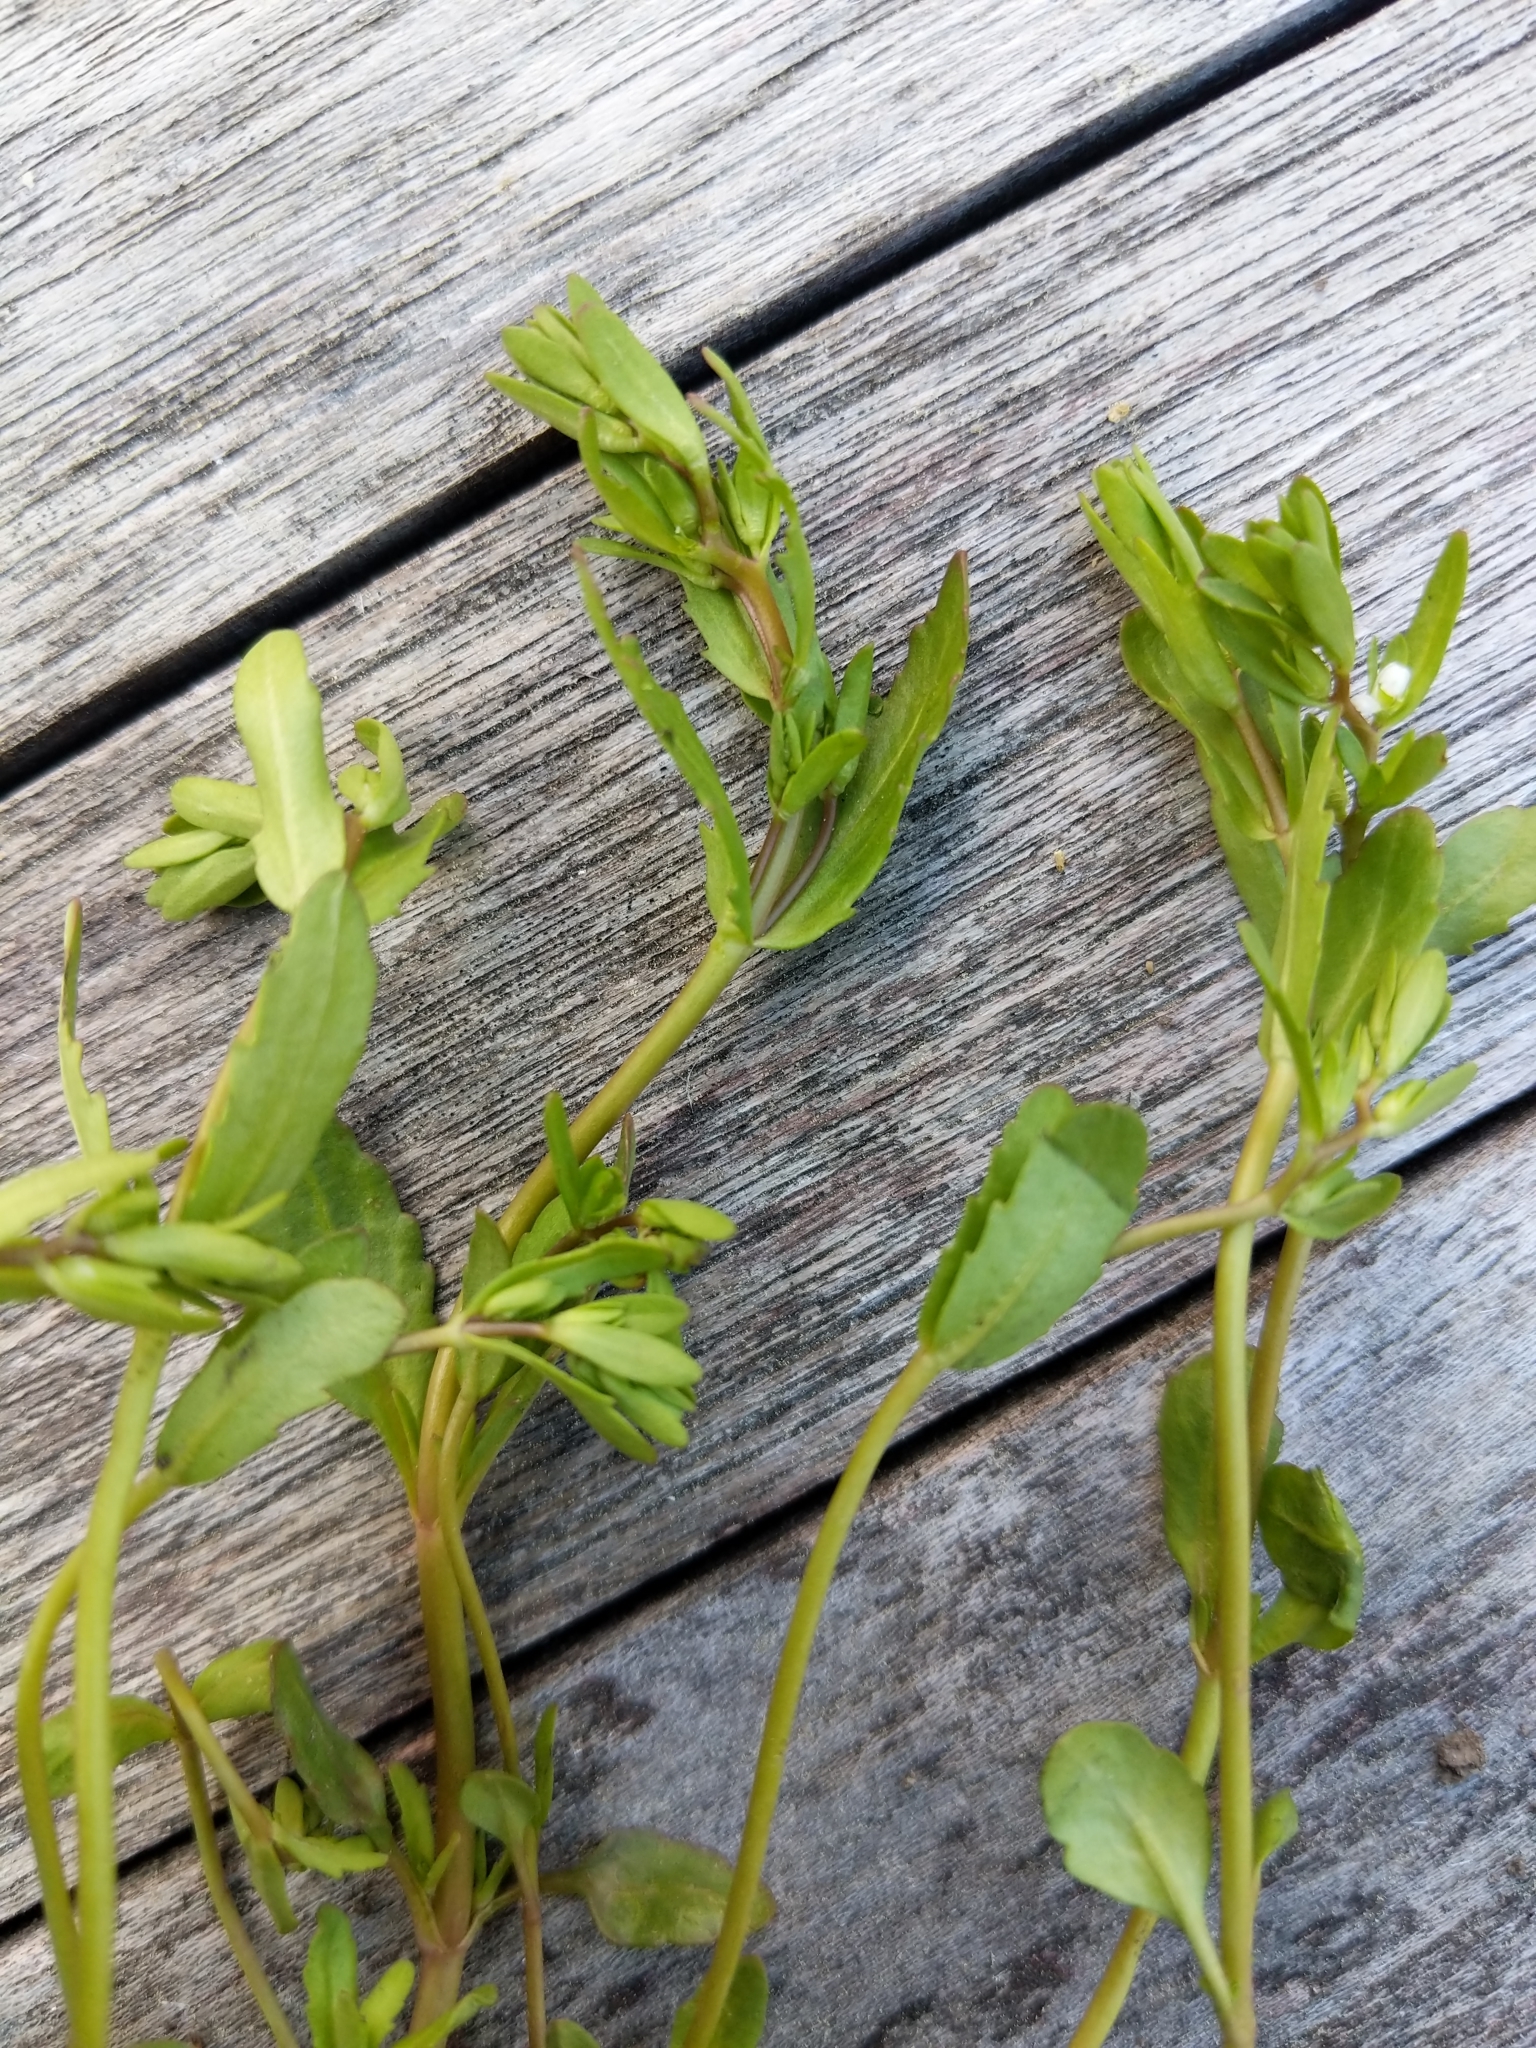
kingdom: Plantae
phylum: Tracheophyta
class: Magnoliopsida
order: Lamiales
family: Plantaginaceae
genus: Veronica
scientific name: Veronica peregrina
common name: Neckweed
